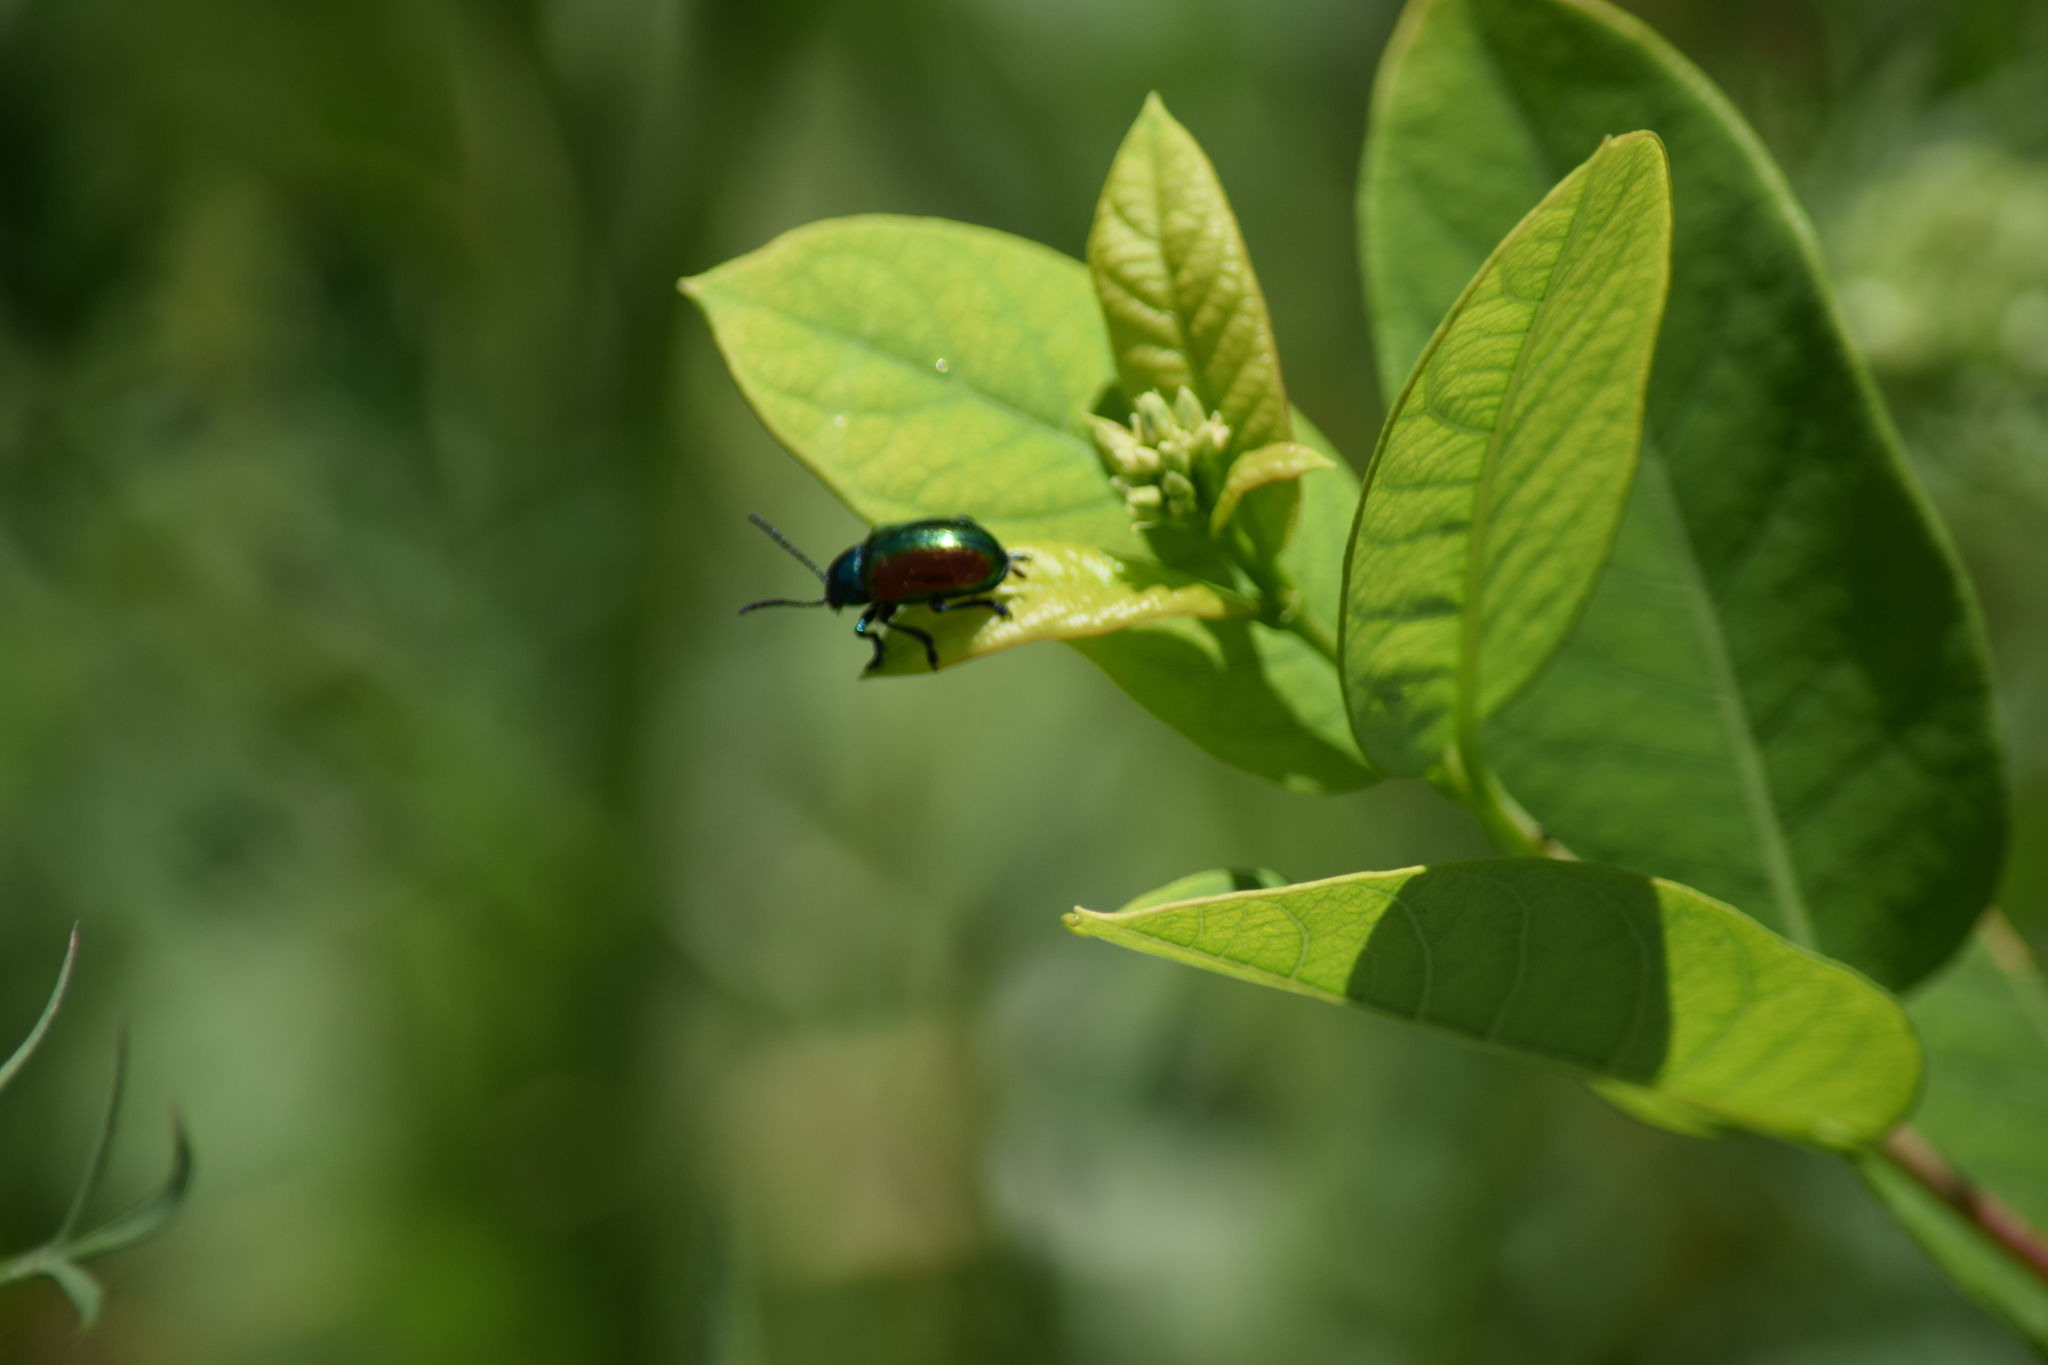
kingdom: Animalia
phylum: Arthropoda
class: Insecta
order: Coleoptera
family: Chrysomelidae
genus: Chrysochus
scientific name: Chrysochus auratus
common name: Dogbane leaf beetle
